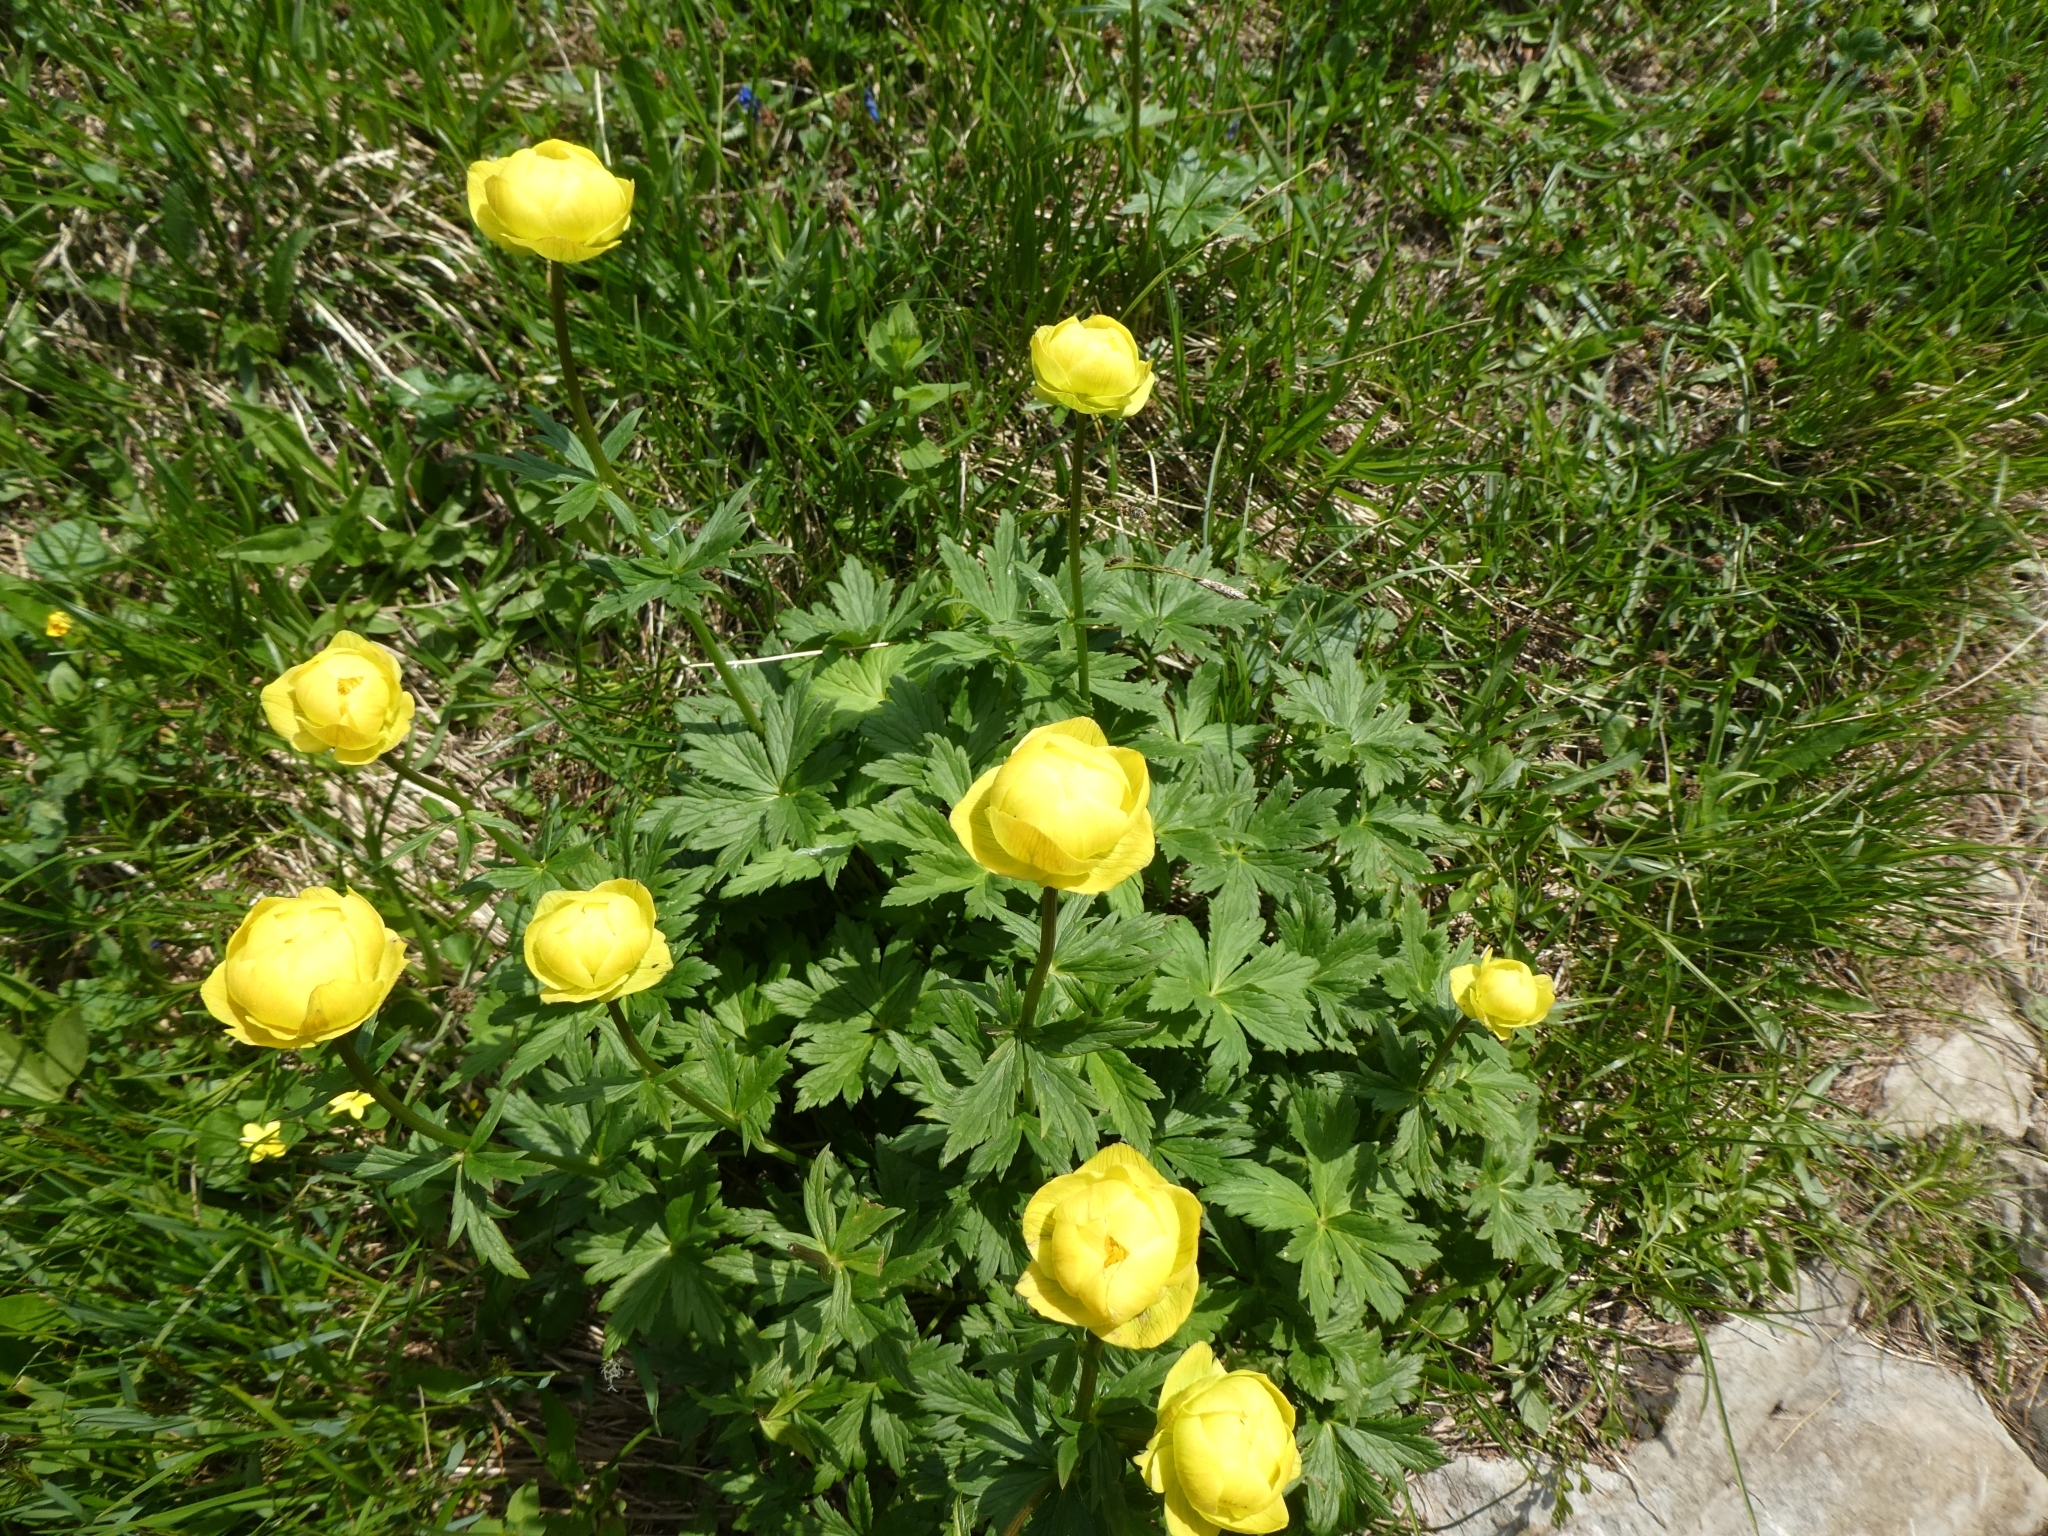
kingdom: Plantae
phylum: Tracheophyta
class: Magnoliopsida
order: Ranunculales
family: Ranunculaceae
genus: Trollius
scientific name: Trollius europaeus
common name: European globeflower
